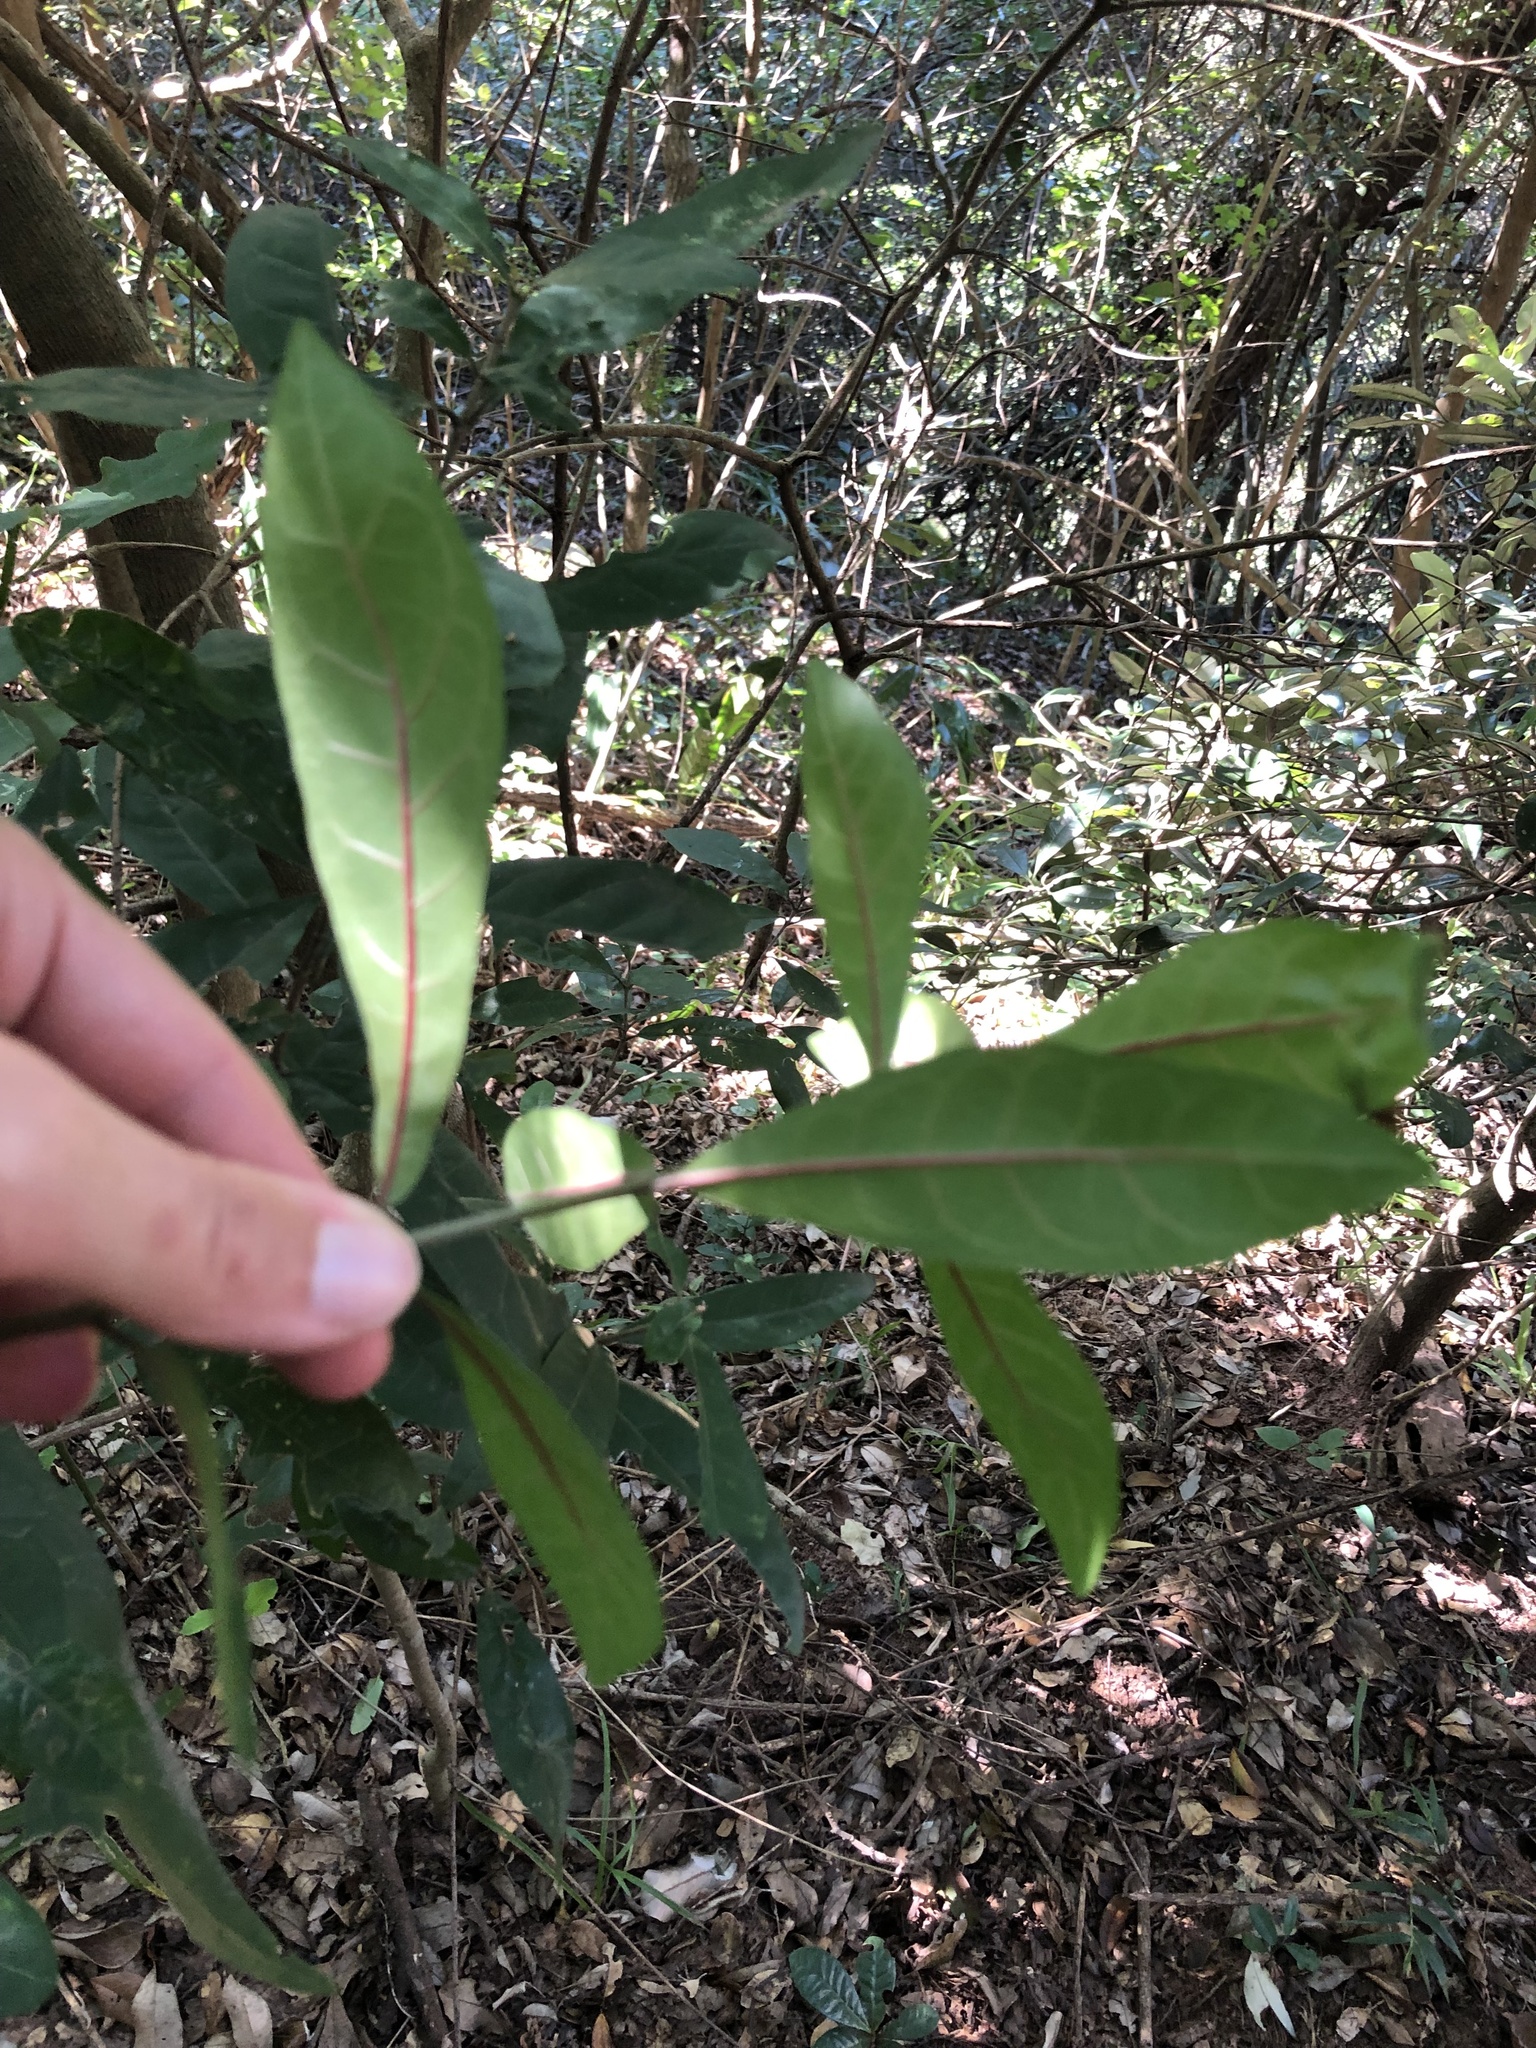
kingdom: Plantae
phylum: Tracheophyta
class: Magnoliopsida
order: Gentianales
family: Rubiaceae
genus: Rothmannia
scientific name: Rothmannia globosa
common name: September bells
